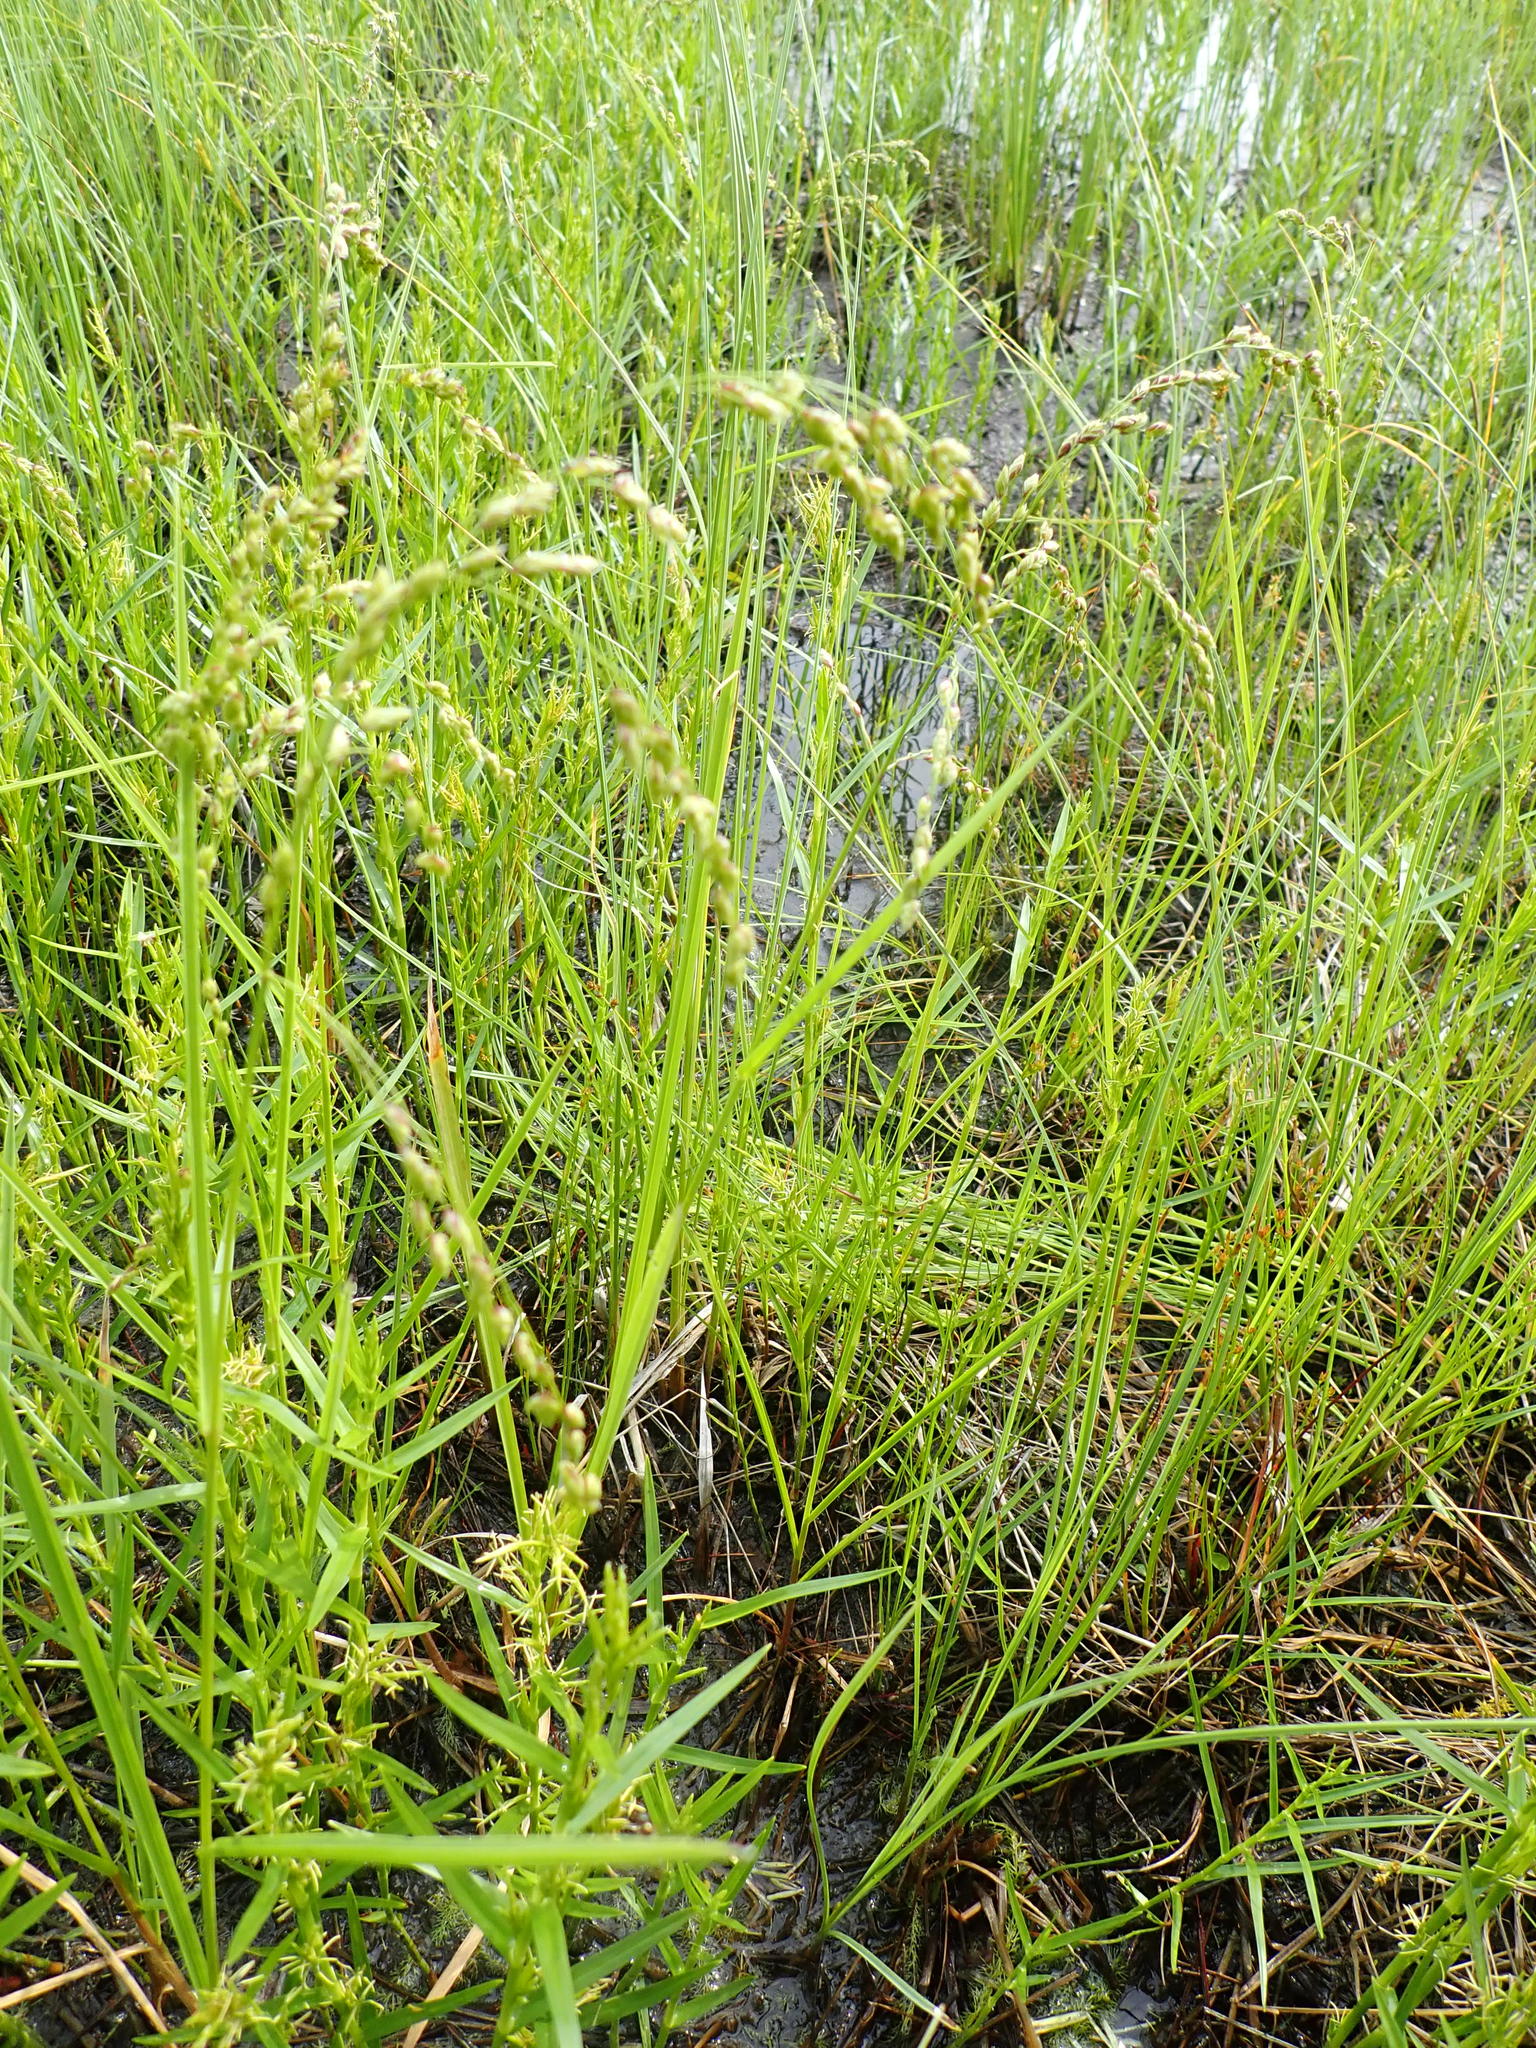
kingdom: Plantae
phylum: Tracheophyta
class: Liliopsida
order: Poales
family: Poaceae
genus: Glyceria
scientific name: Glyceria canadensis
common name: Canada mannagrass
